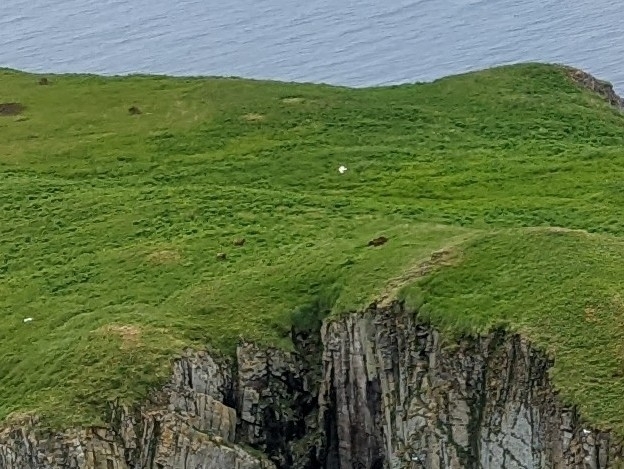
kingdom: Animalia
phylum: Chordata
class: Mammalia
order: Carnivora
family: Ursidae
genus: Ursus
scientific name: Ursus arctos
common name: Brown bear
